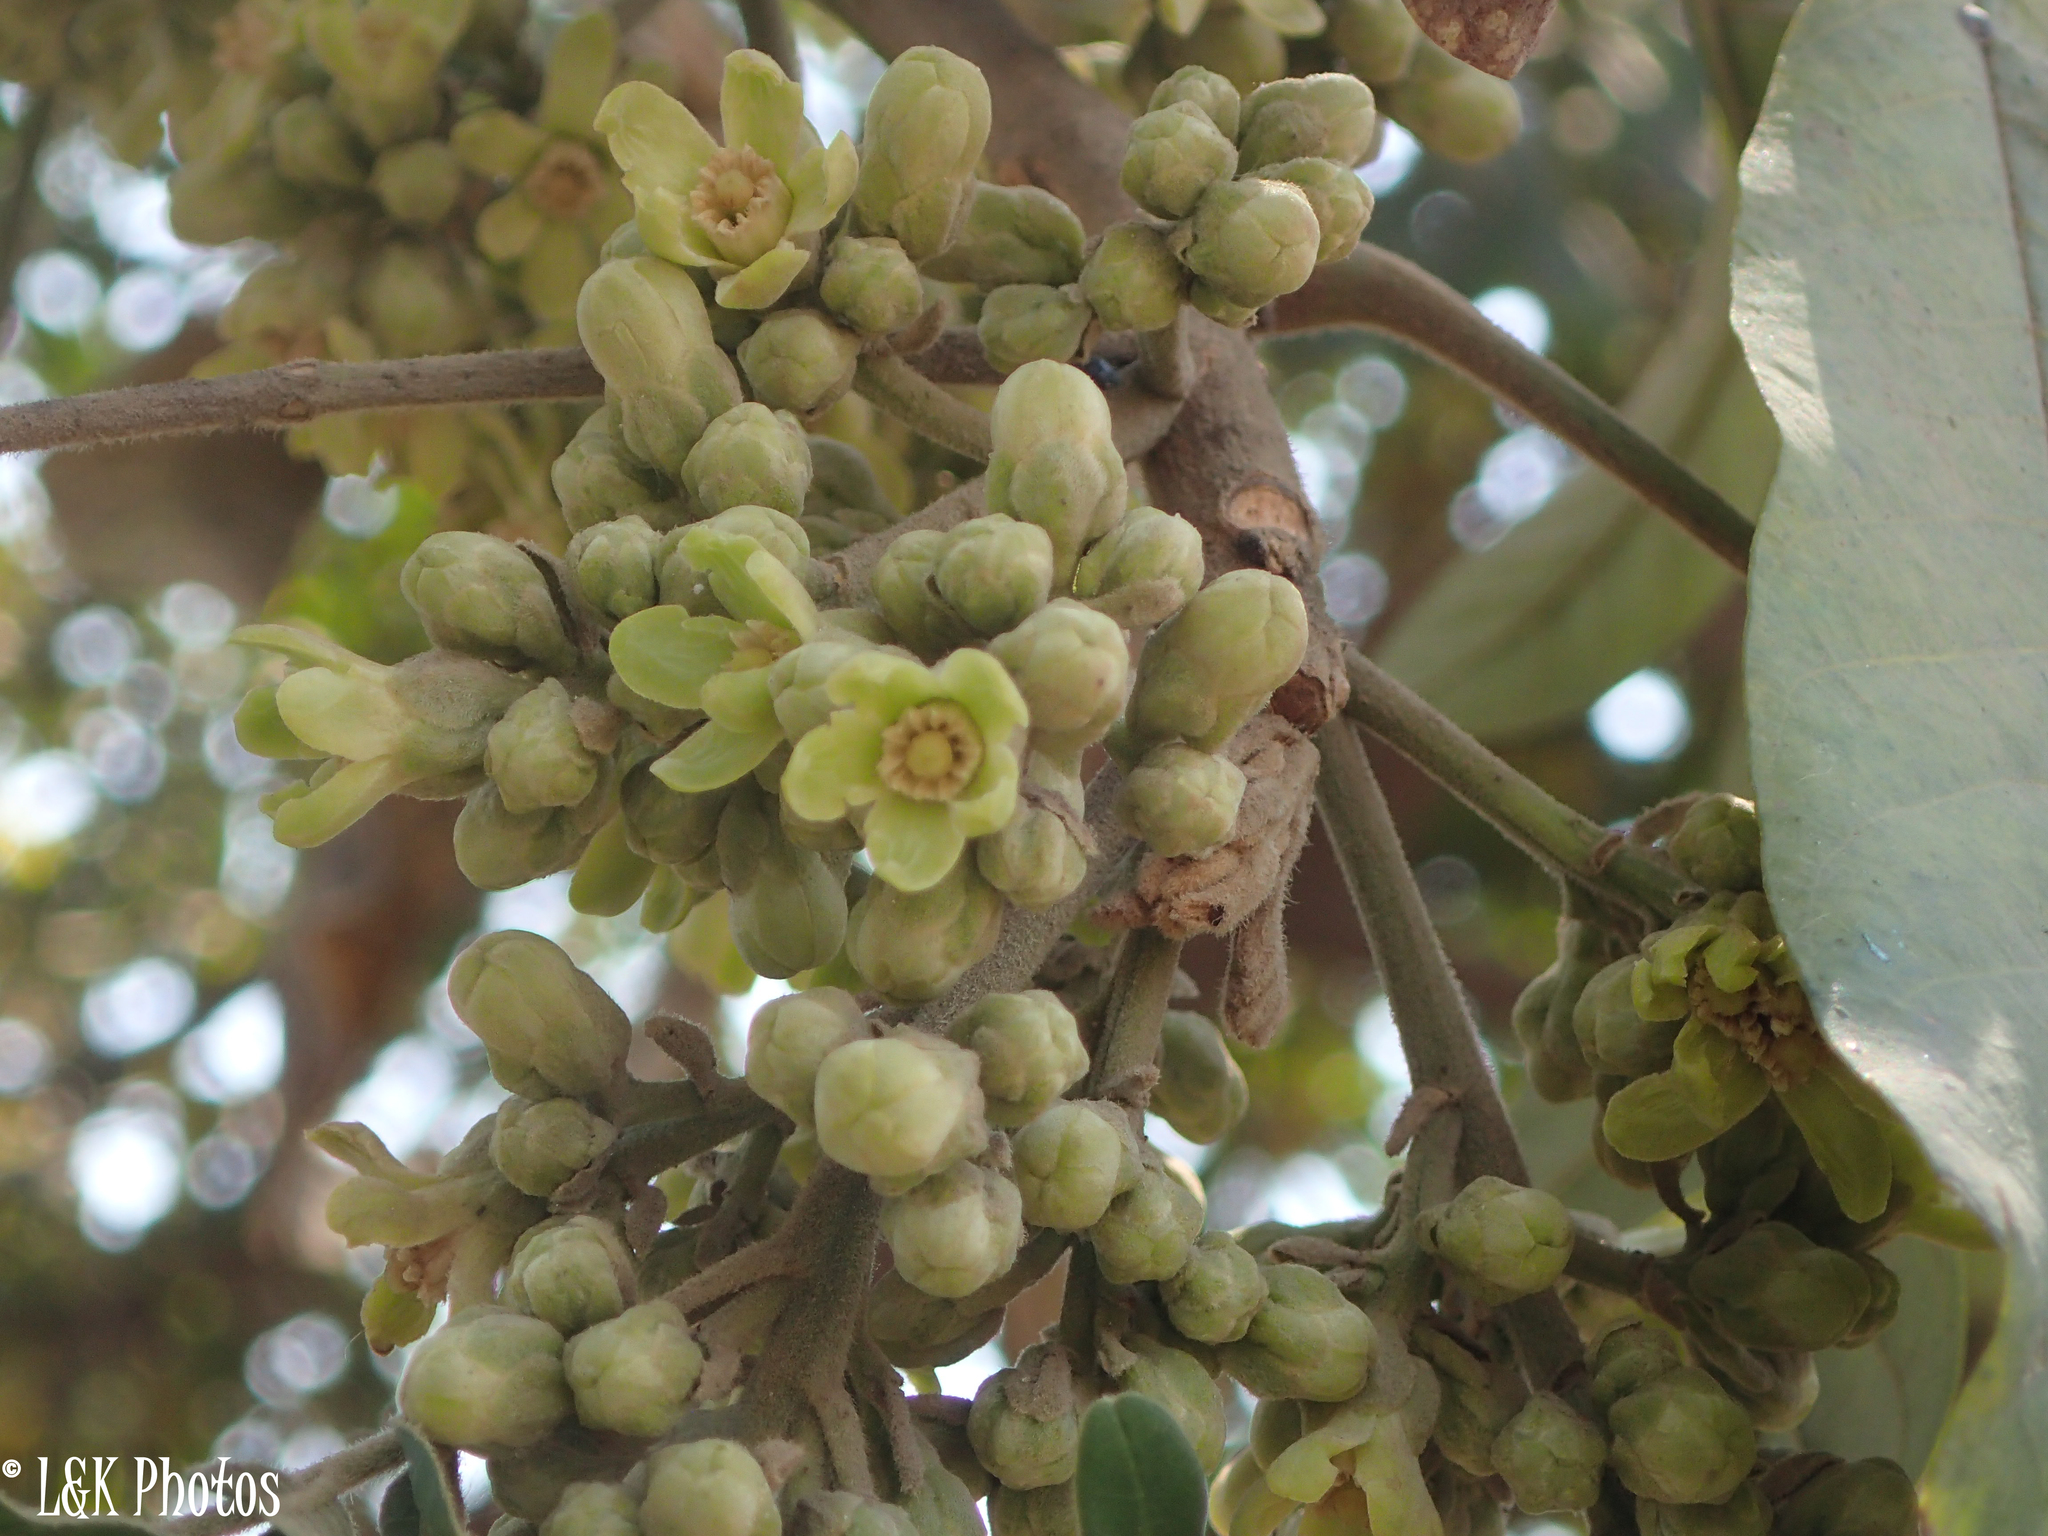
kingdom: Plantae
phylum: Tracheophyta
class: Magnoliopsida
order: Sapindales
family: Meliaceae
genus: Trichilia
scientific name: Trichilia emetica
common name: Christmas-bells
